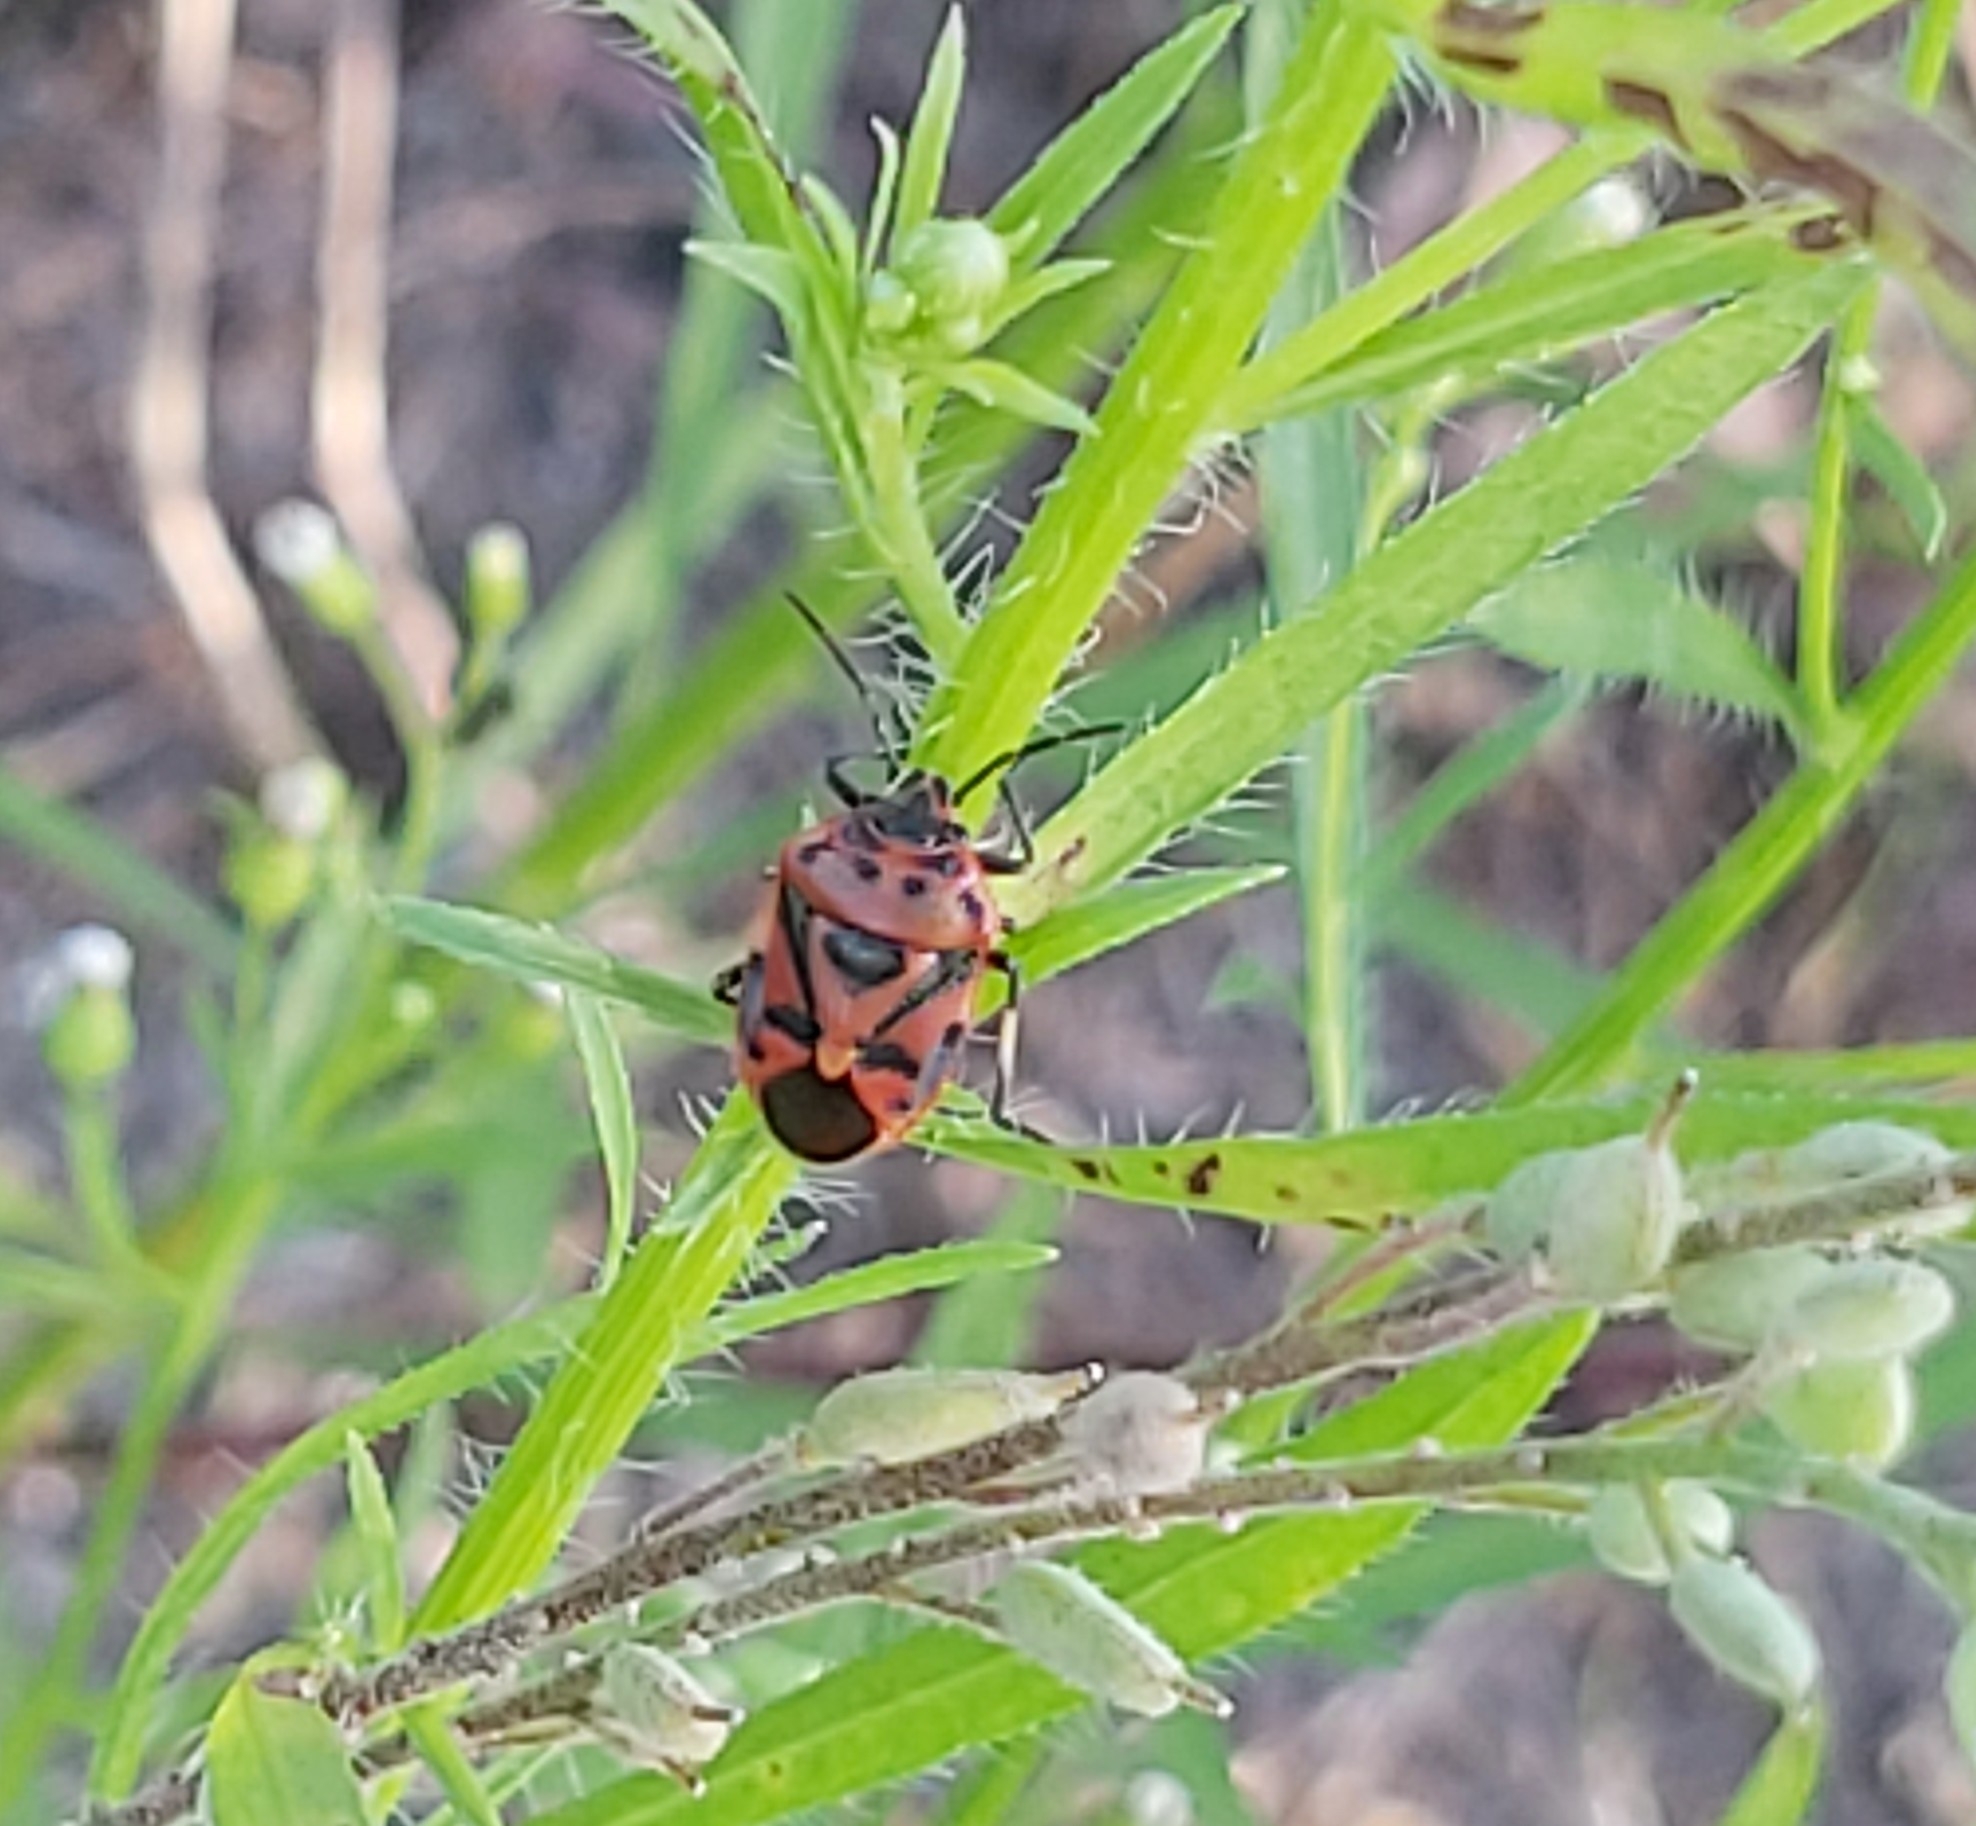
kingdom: Animalia
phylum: Arthropoda
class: Insecta
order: Hemiptera
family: Pentatomidae
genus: Eurydema
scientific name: Eurydema ornata
